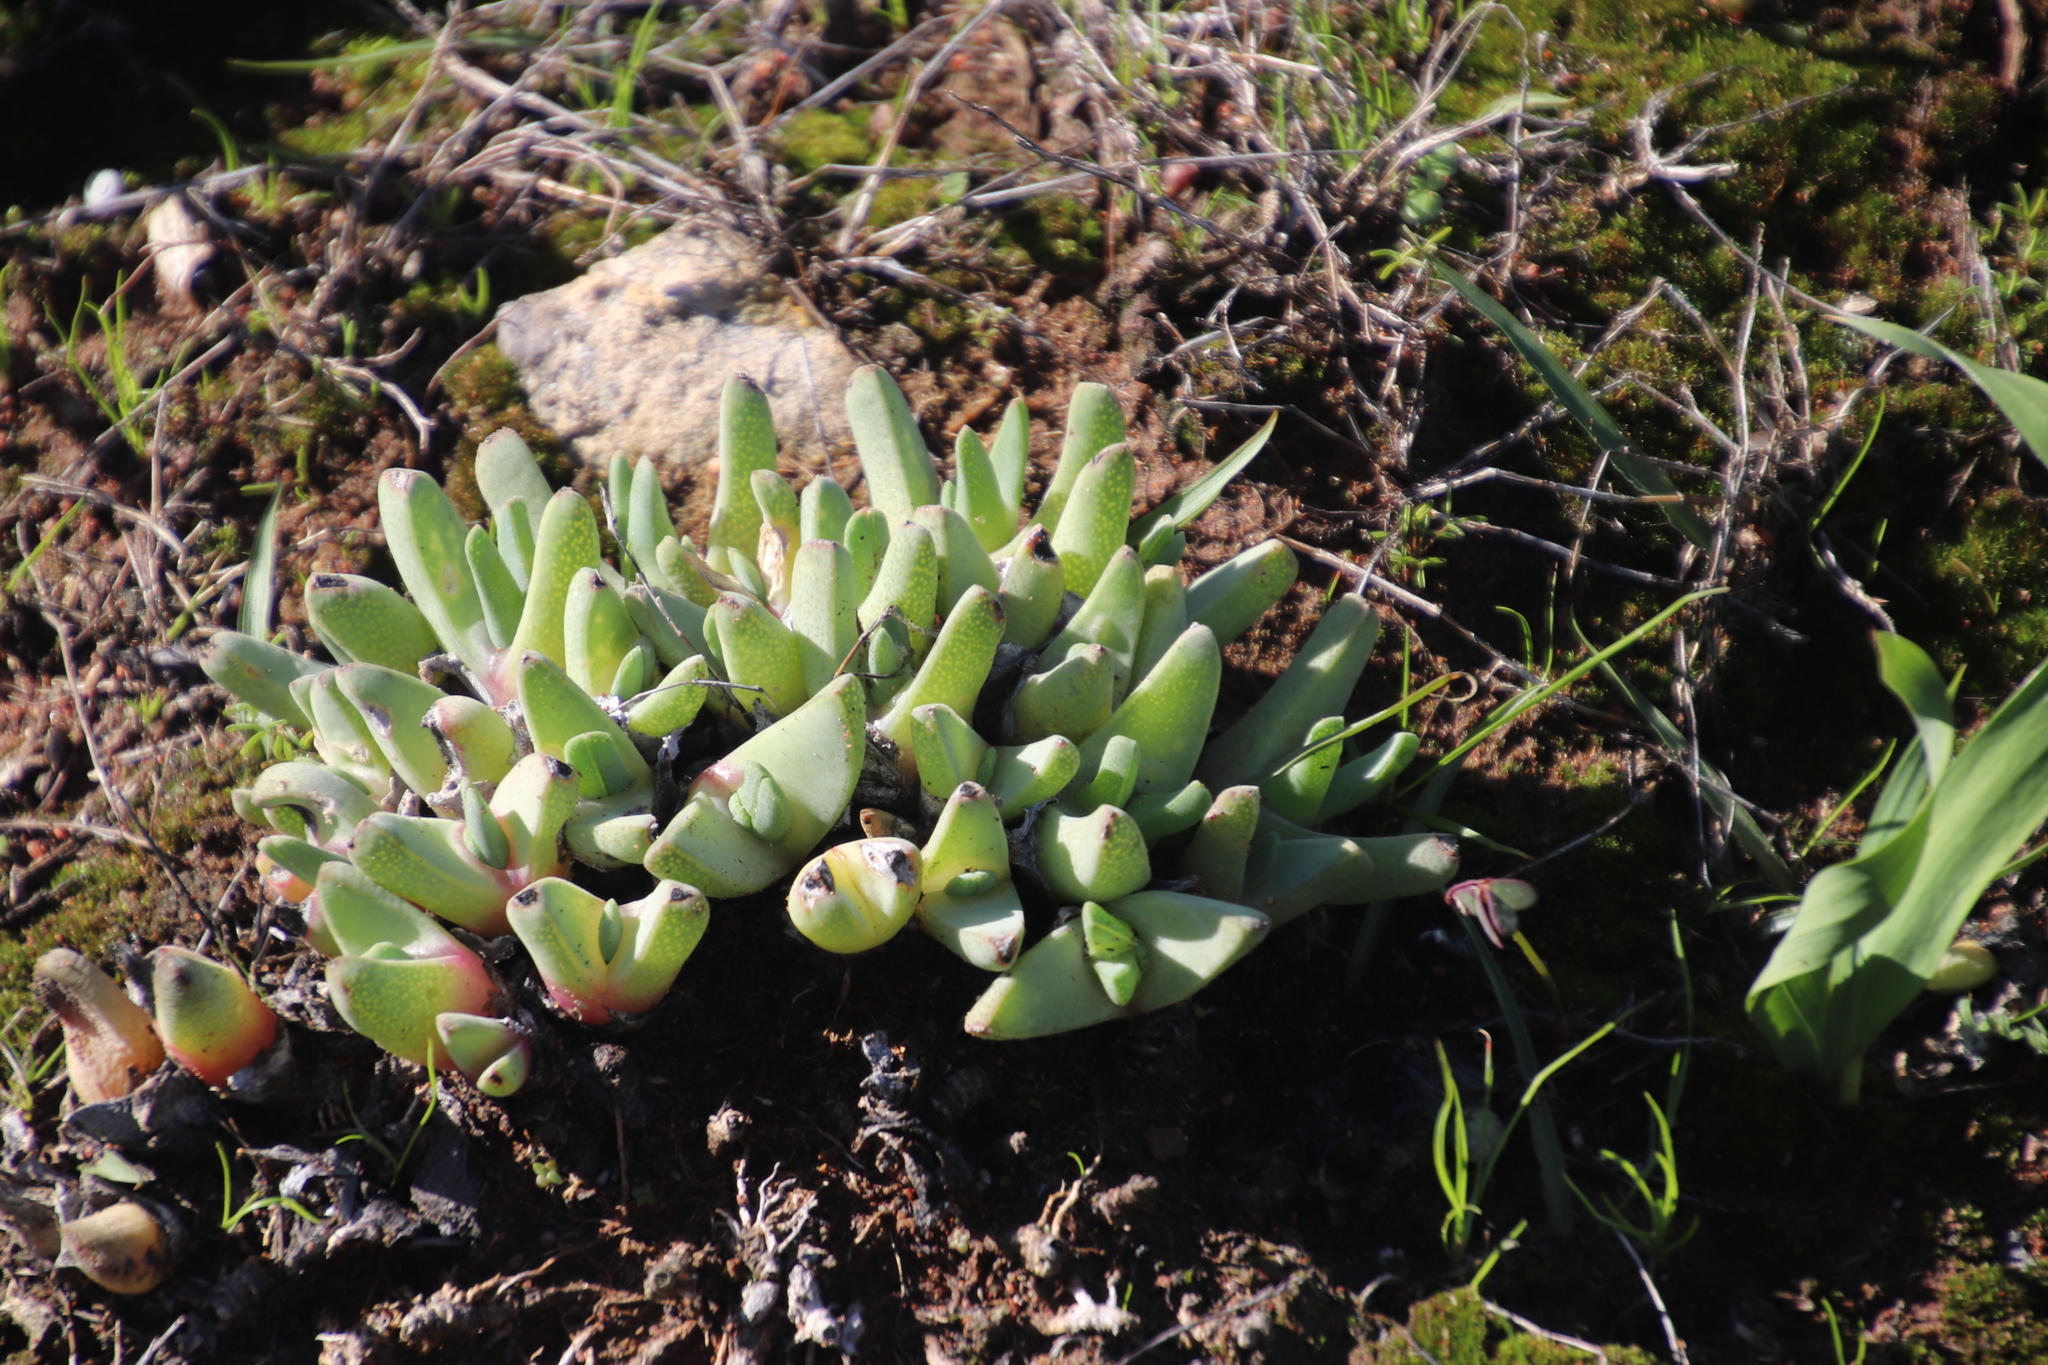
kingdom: Plantae
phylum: Tracheophyta
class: Magnoliopsida
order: Caryophyllales
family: Aizoaceae
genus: Cheiridopsis
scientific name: Cheiridopsis rostrata
